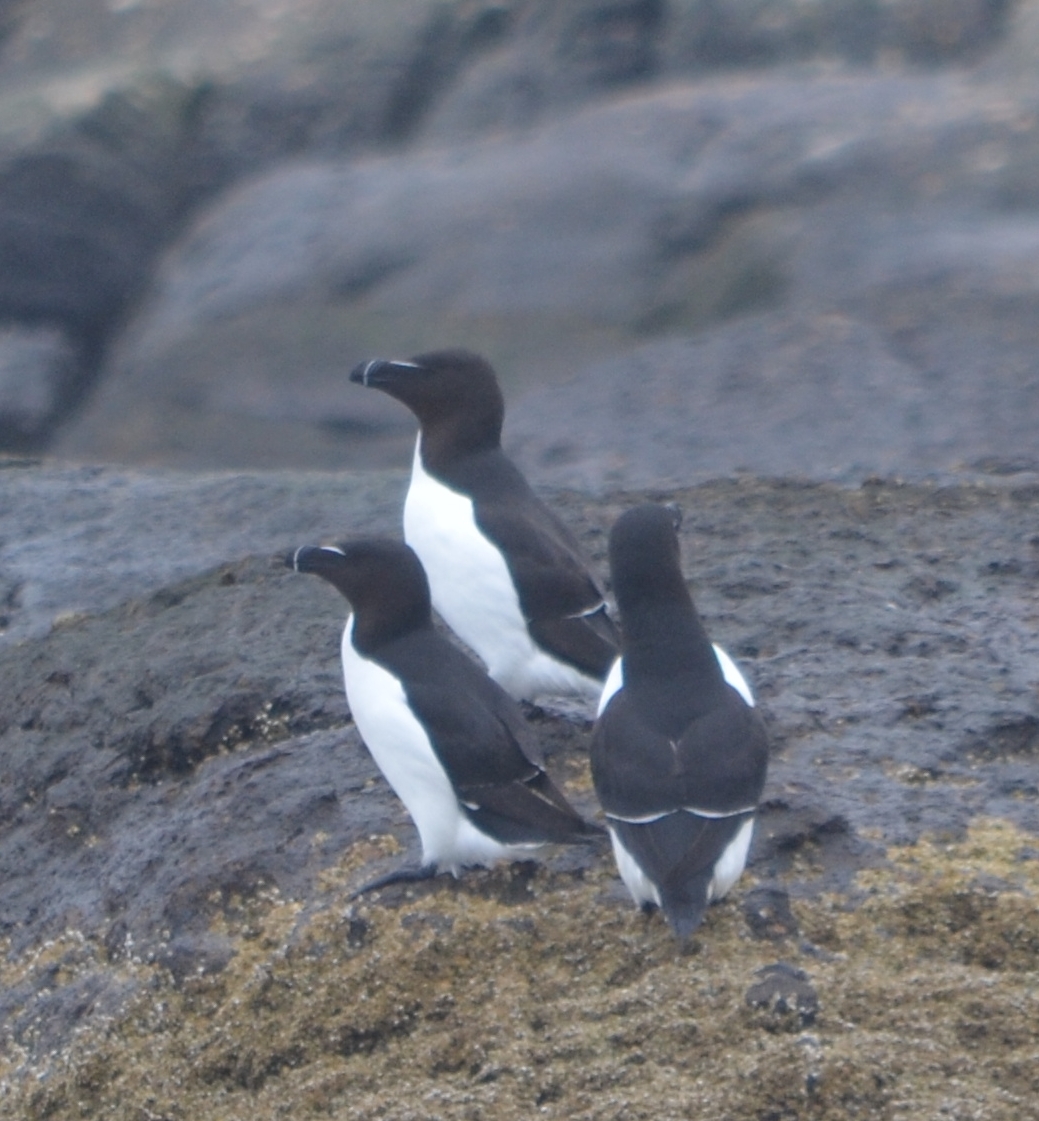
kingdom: Animalia
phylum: Chordata
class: Aves
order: Charadriiformes
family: Alcidae
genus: Alca
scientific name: Alca torda
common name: Razorbill
